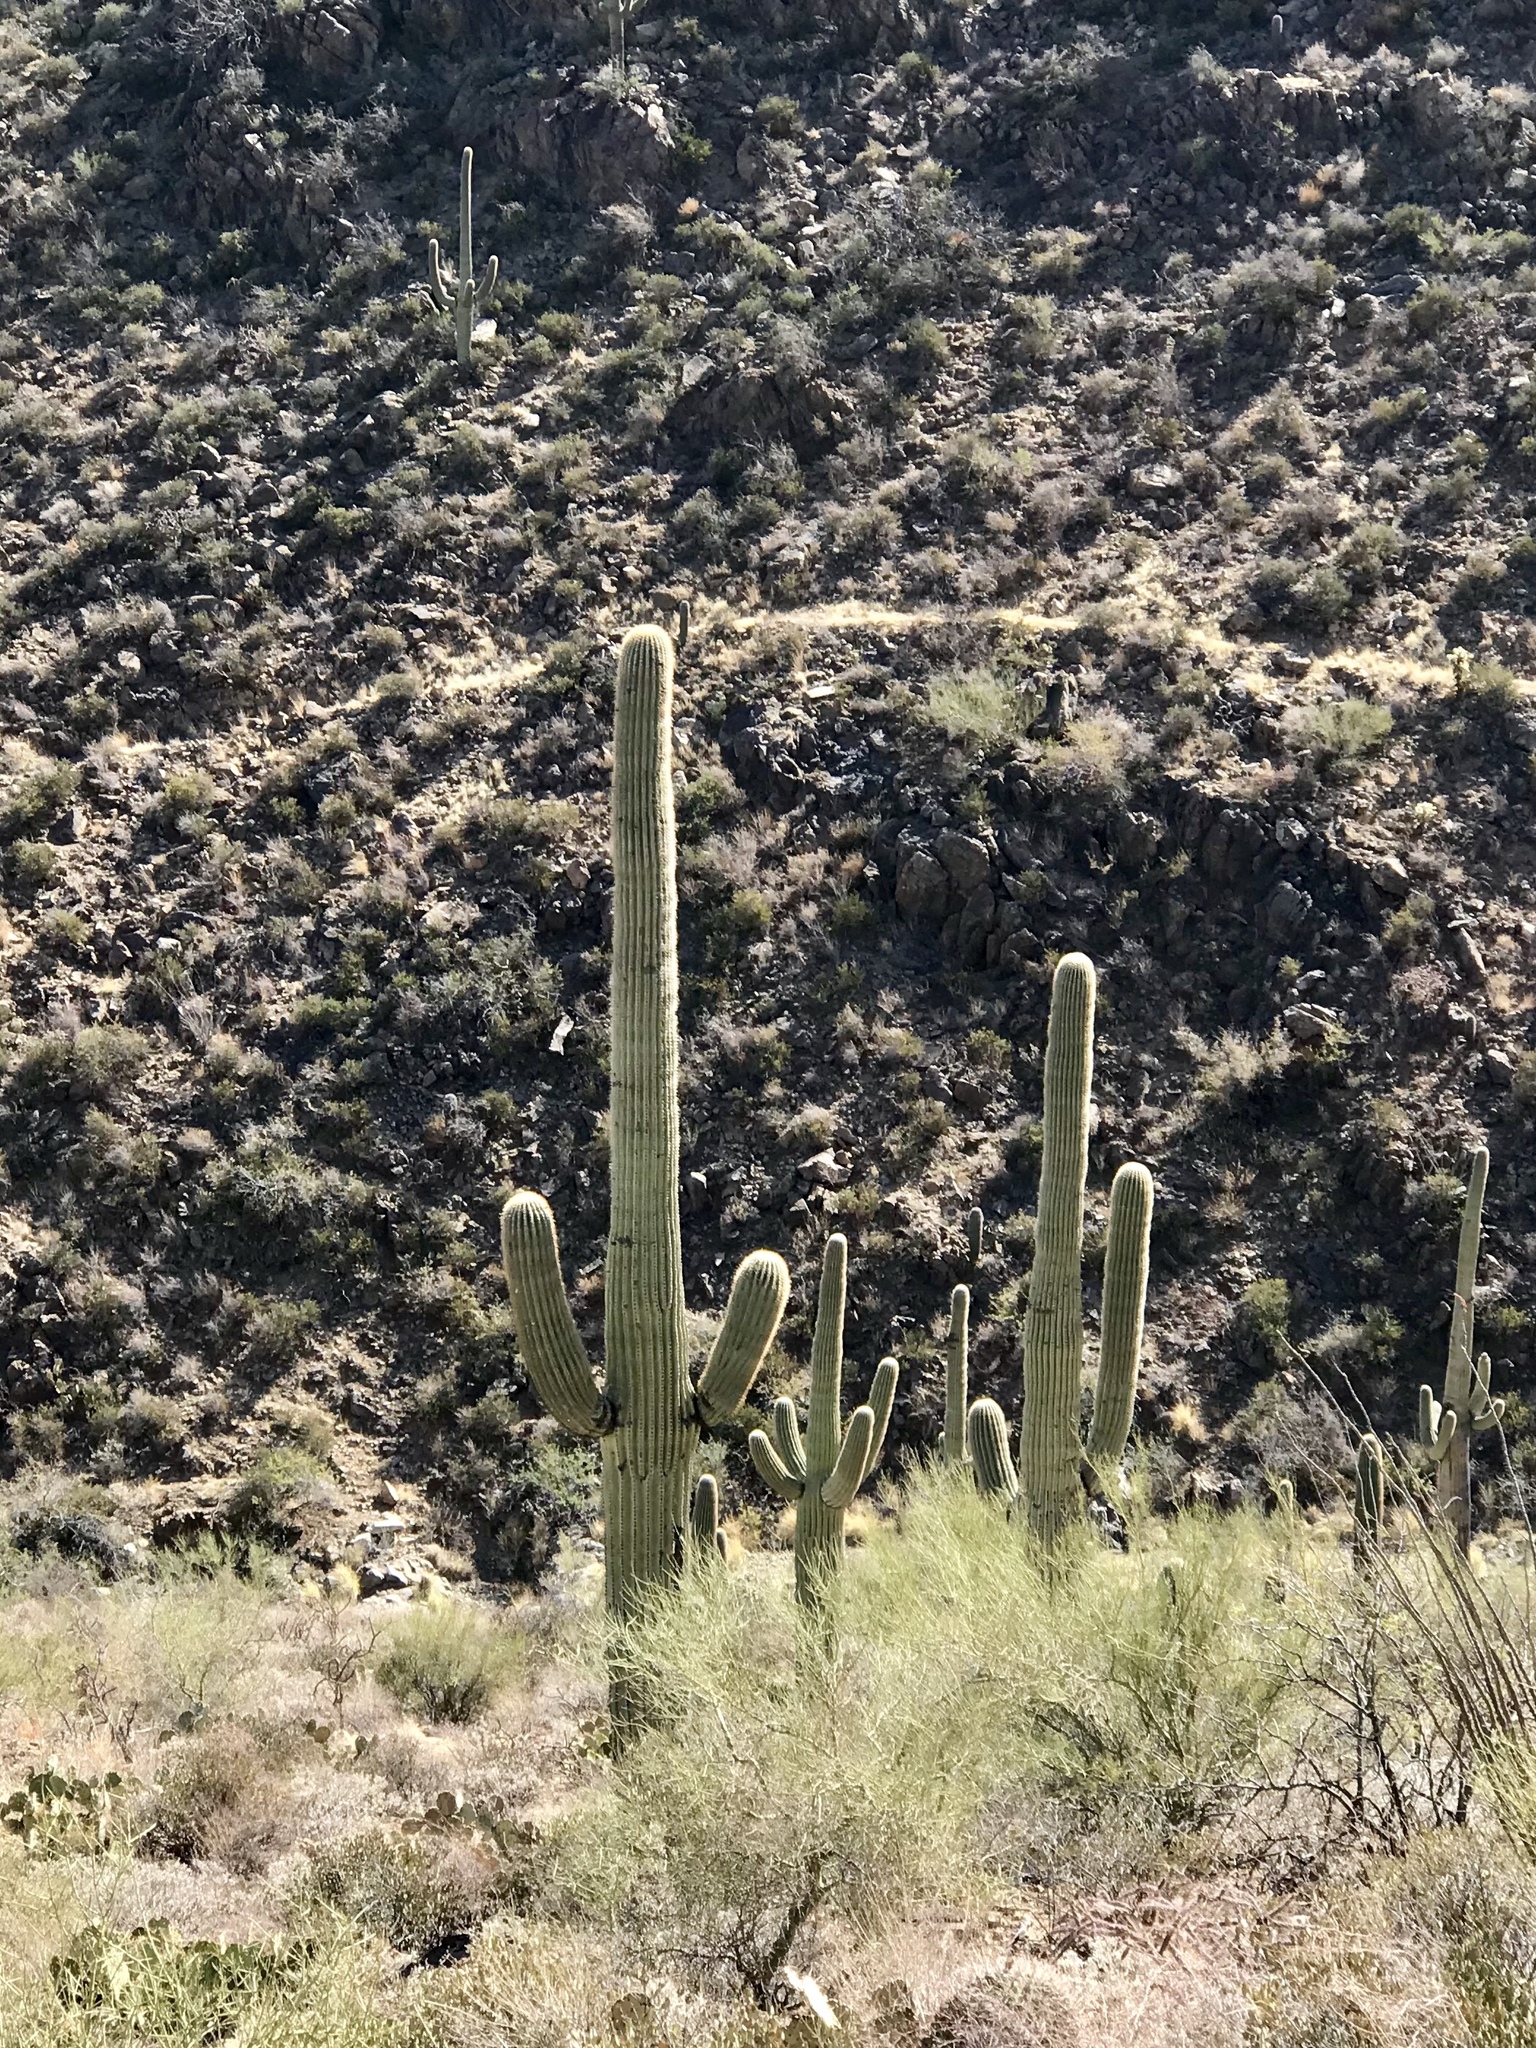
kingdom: Plantae
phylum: Tracheophyta
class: Magnoliopsida
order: Caryophyllales
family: Cactaceae
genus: Carnegiea
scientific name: Carnegiea gigantea
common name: Saguaro
